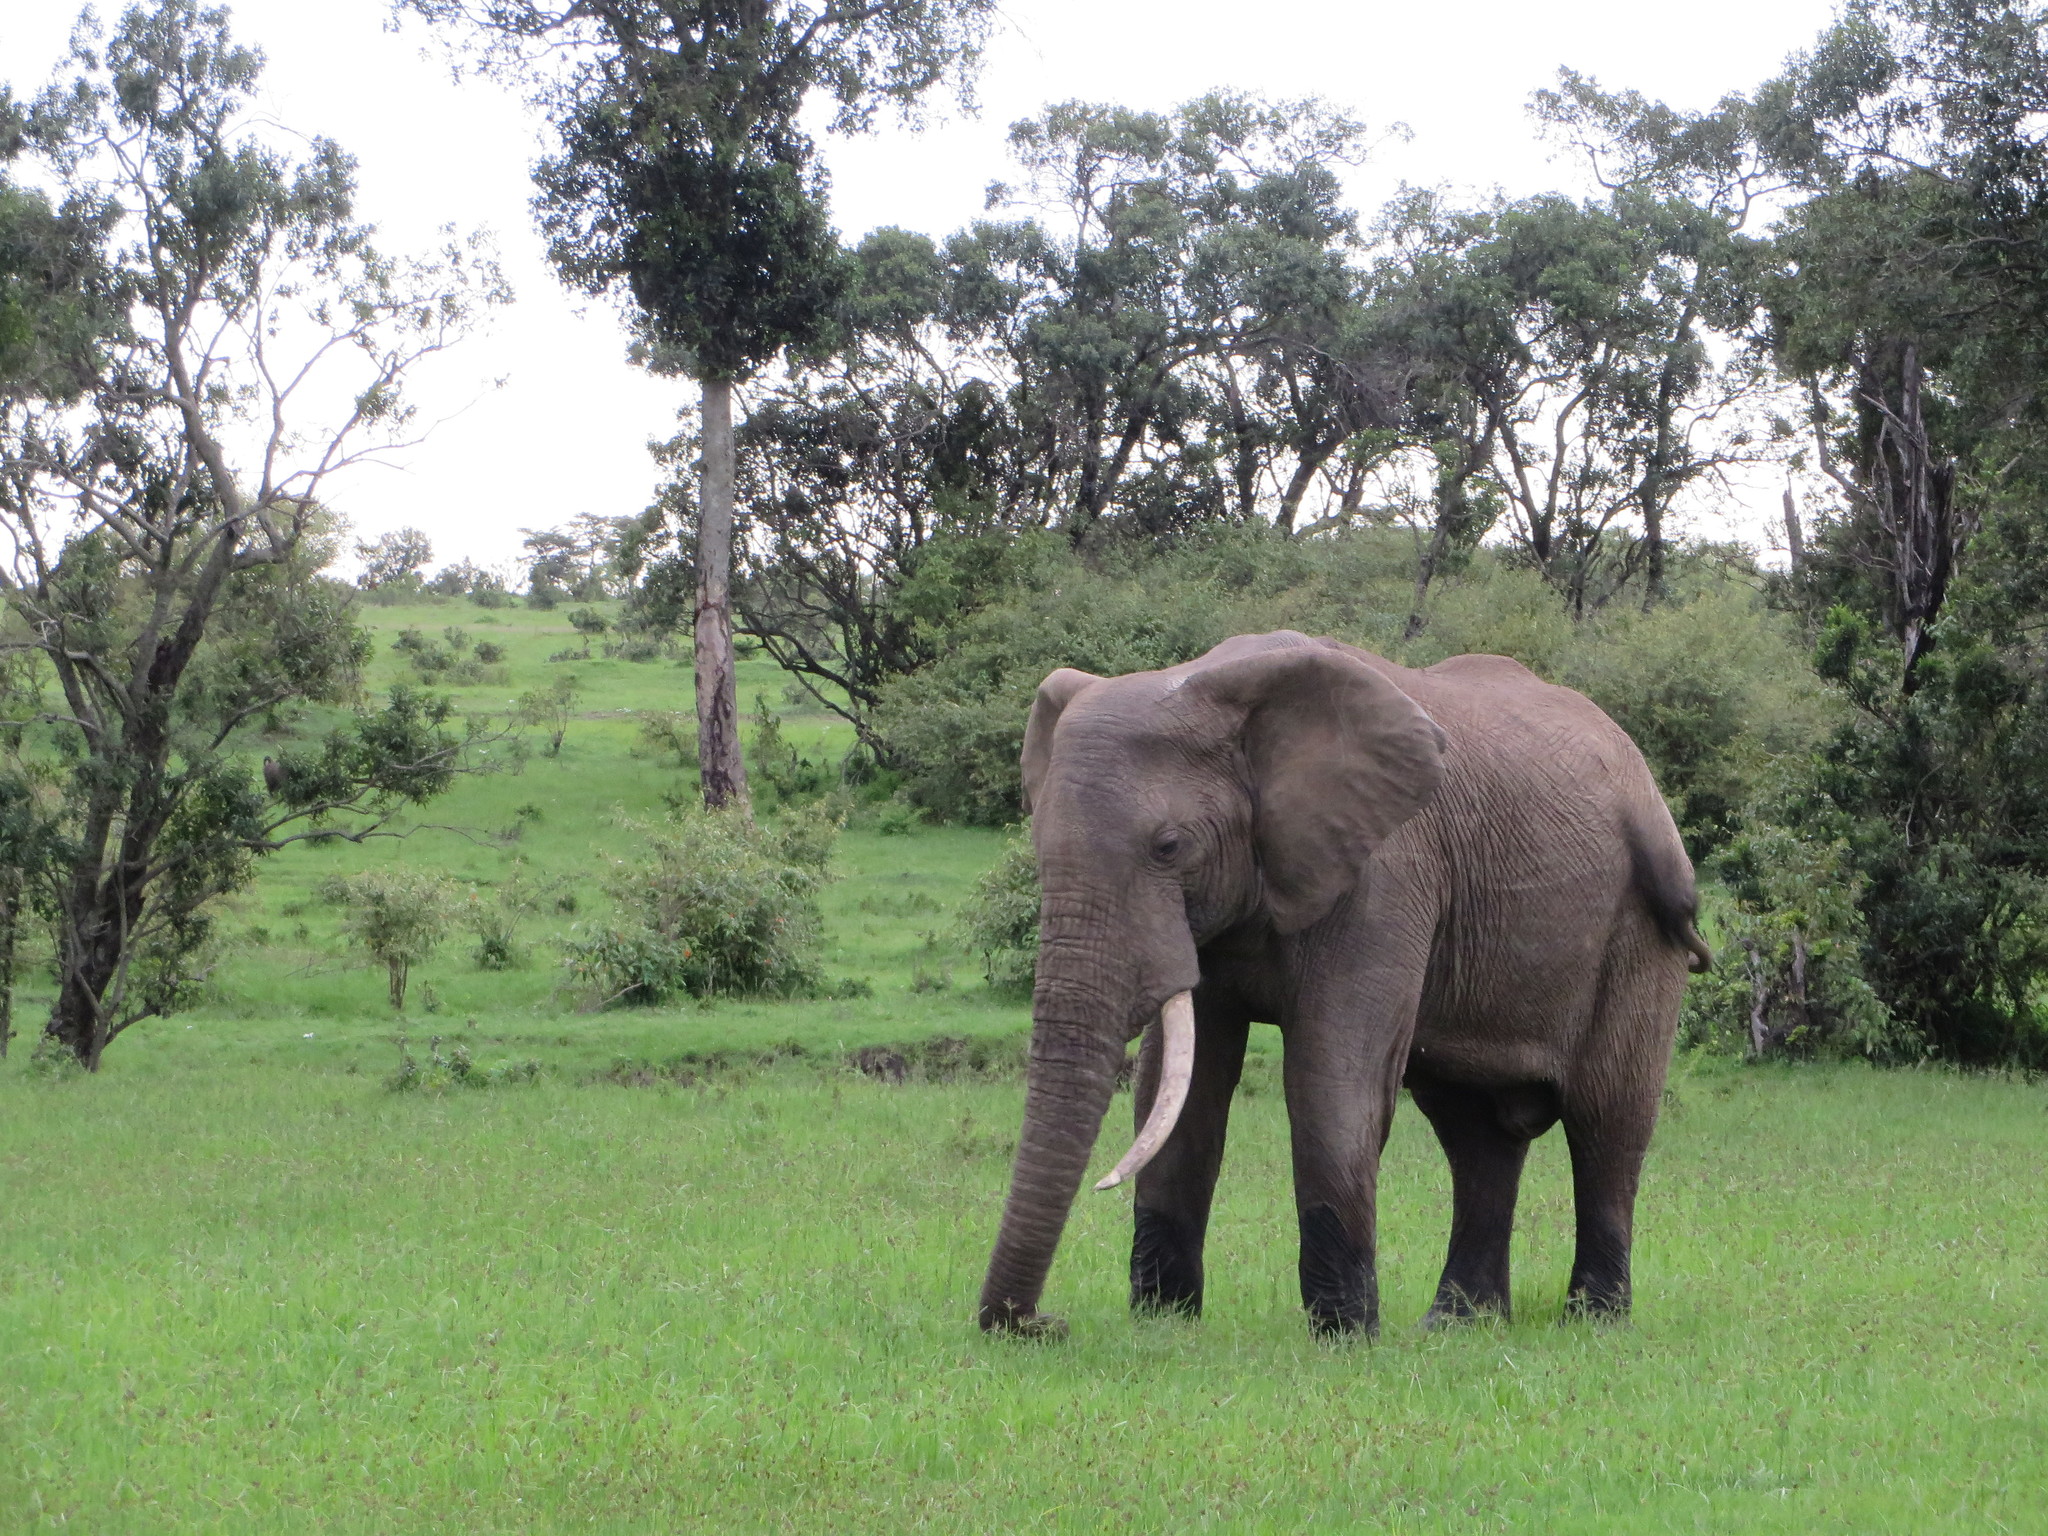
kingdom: Animalia
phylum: Chordata
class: Mammalia
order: Proboscidea
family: Elephantidae
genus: Loxodonta
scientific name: Loxodonta africana
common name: African elephant
